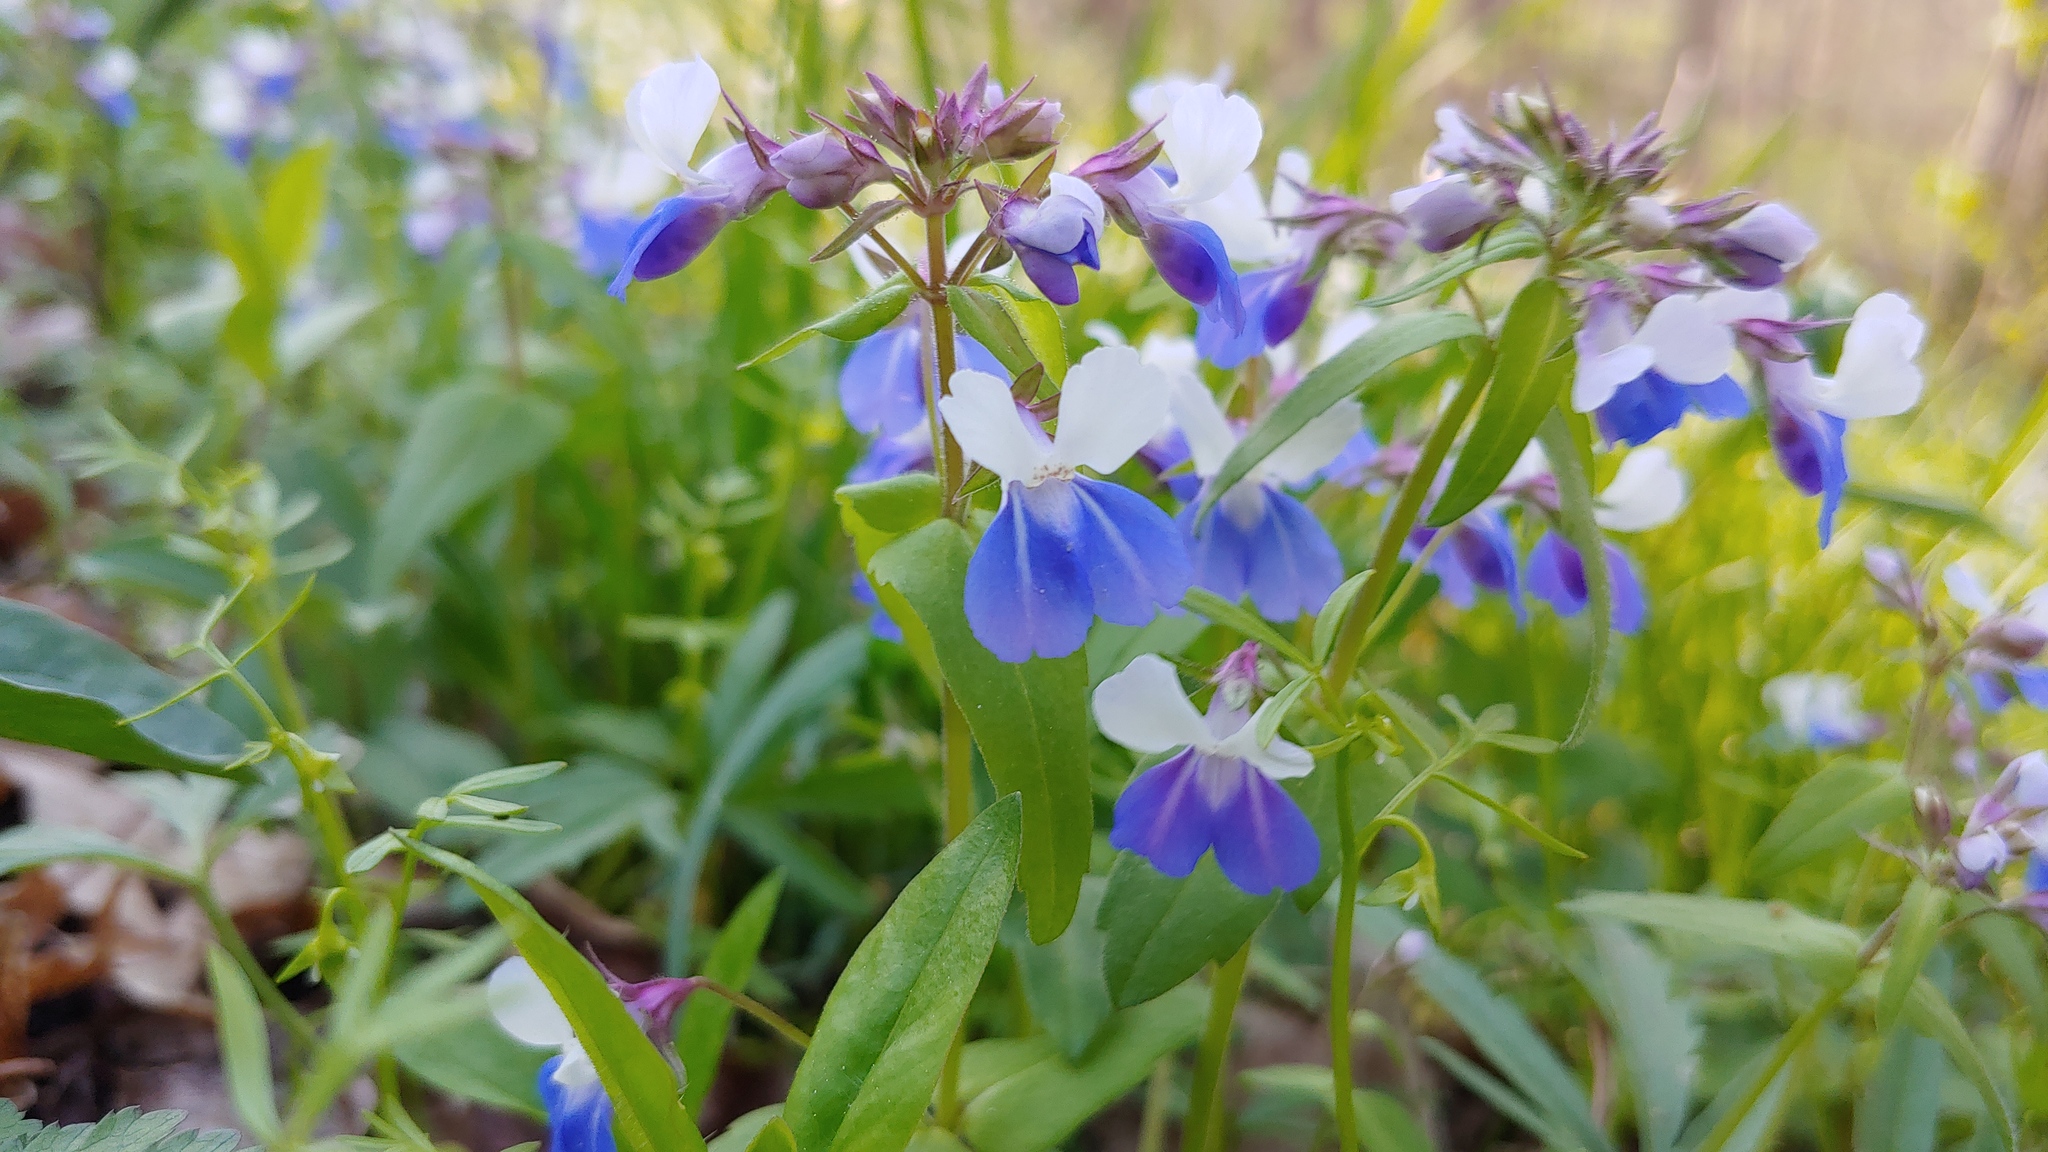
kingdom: Plantae
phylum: Tracheophyta
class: Magnoliopsida
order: Lamiales
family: Plantaginaceae
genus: Collinsia
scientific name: Collinsia verna
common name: Broad-leaved collinsia
